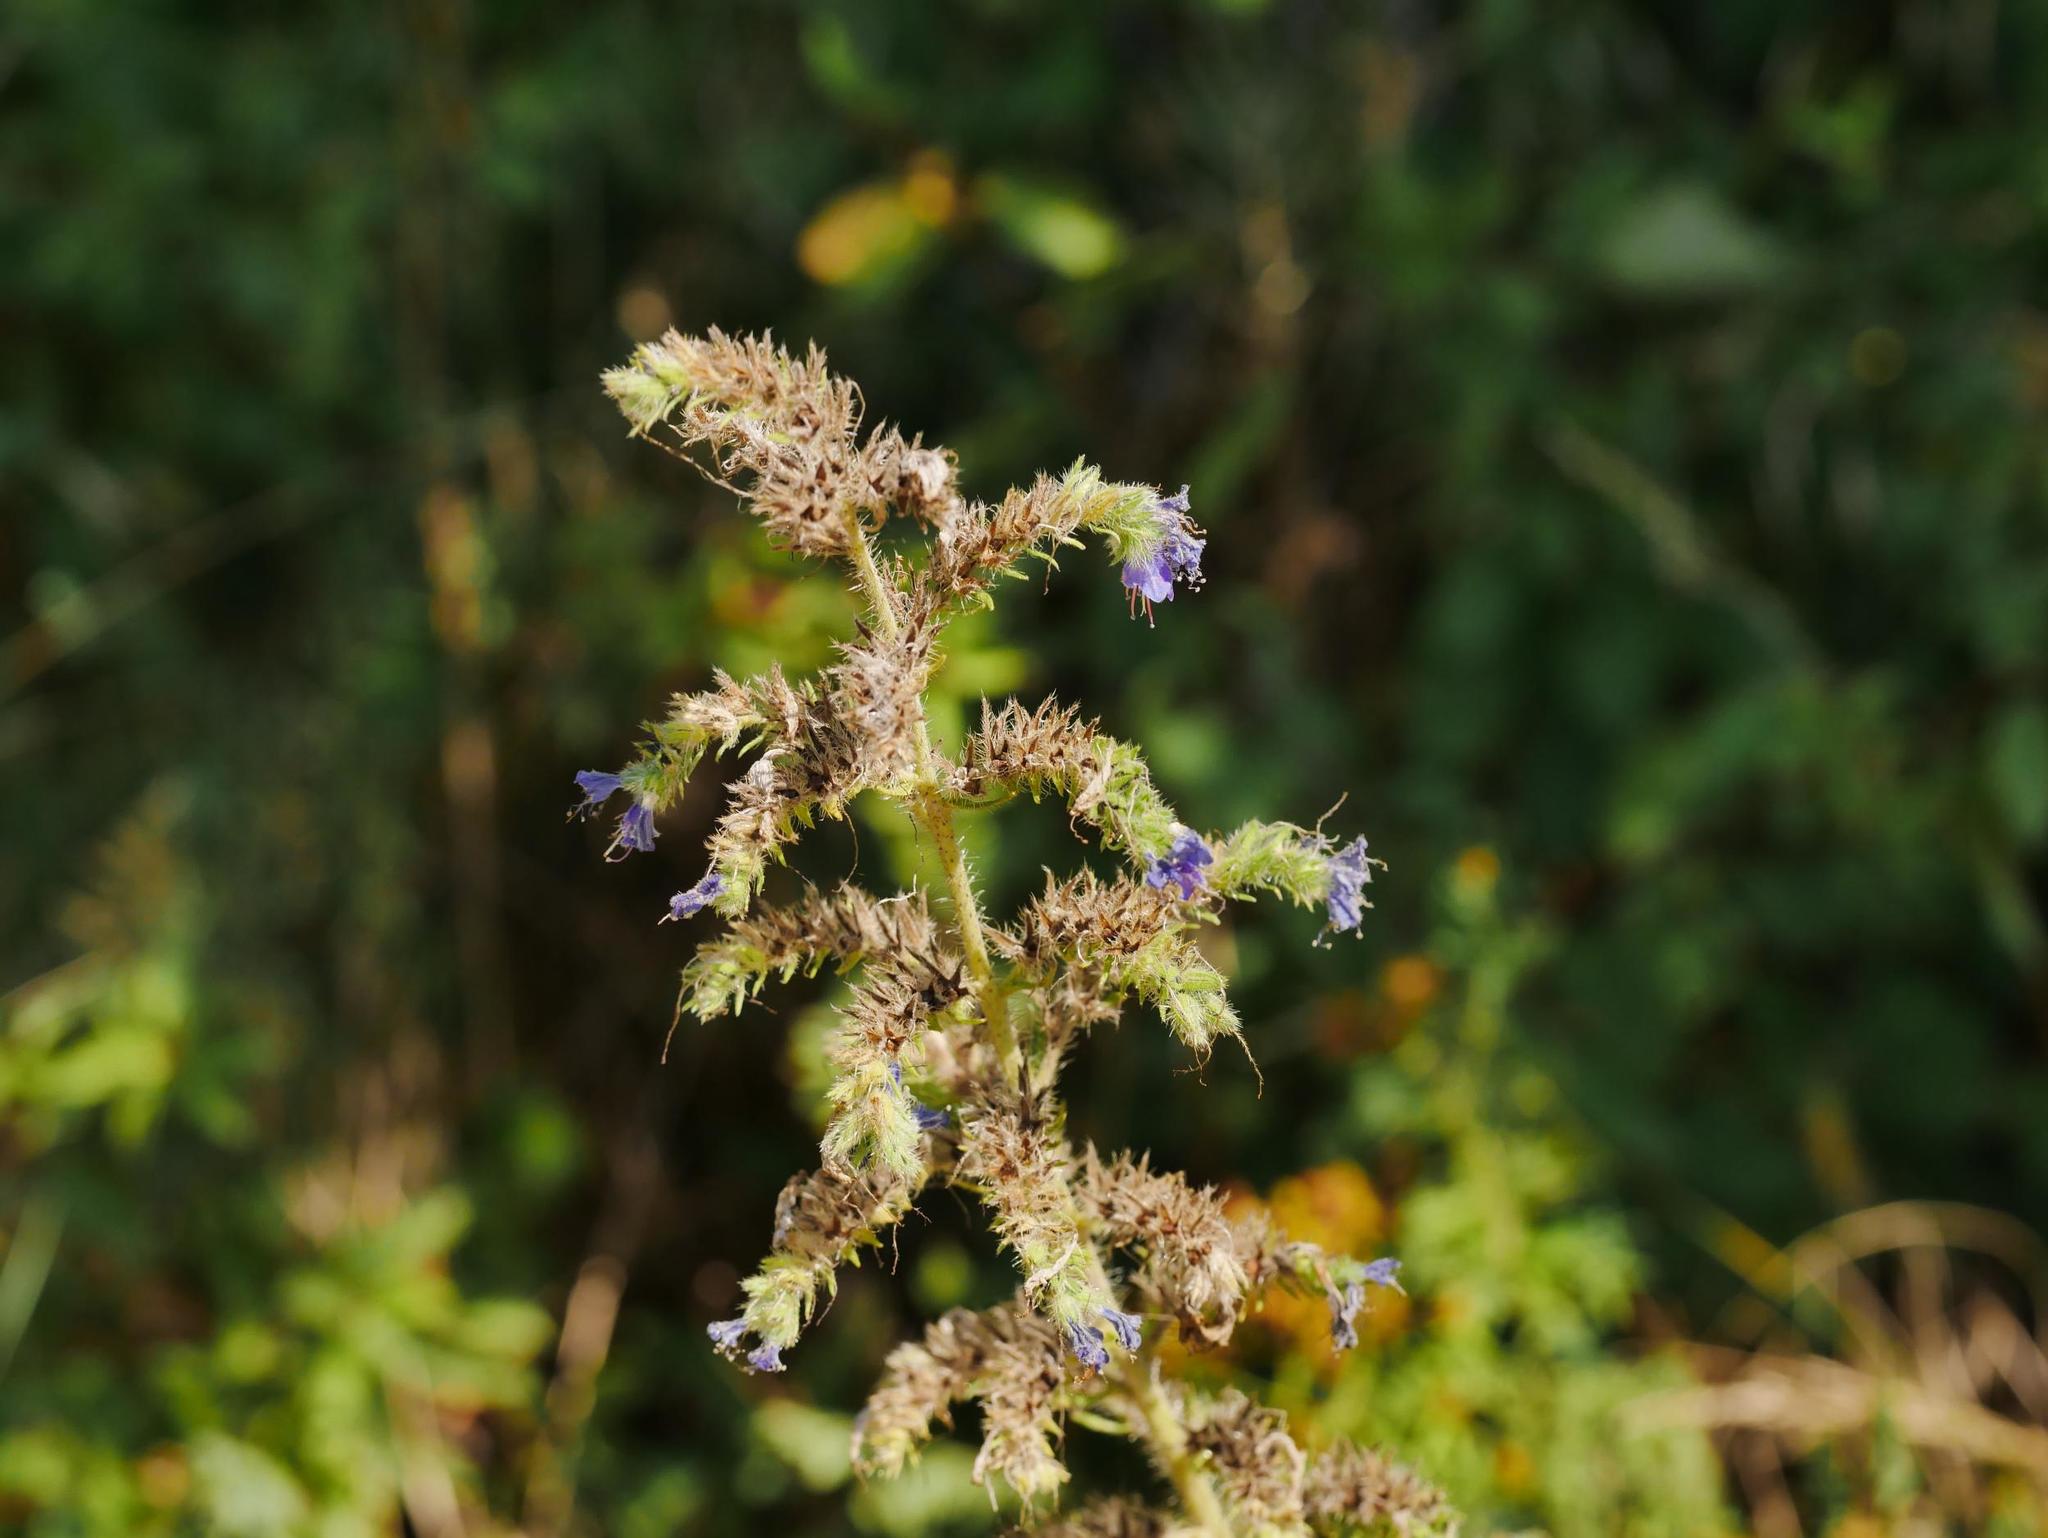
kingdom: Plantae
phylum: Tracheophyta
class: Magnoliopsida
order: Boraginales
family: Boraginaceae
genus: Echium
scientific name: Echium vulgare
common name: Common viper's bugloss
